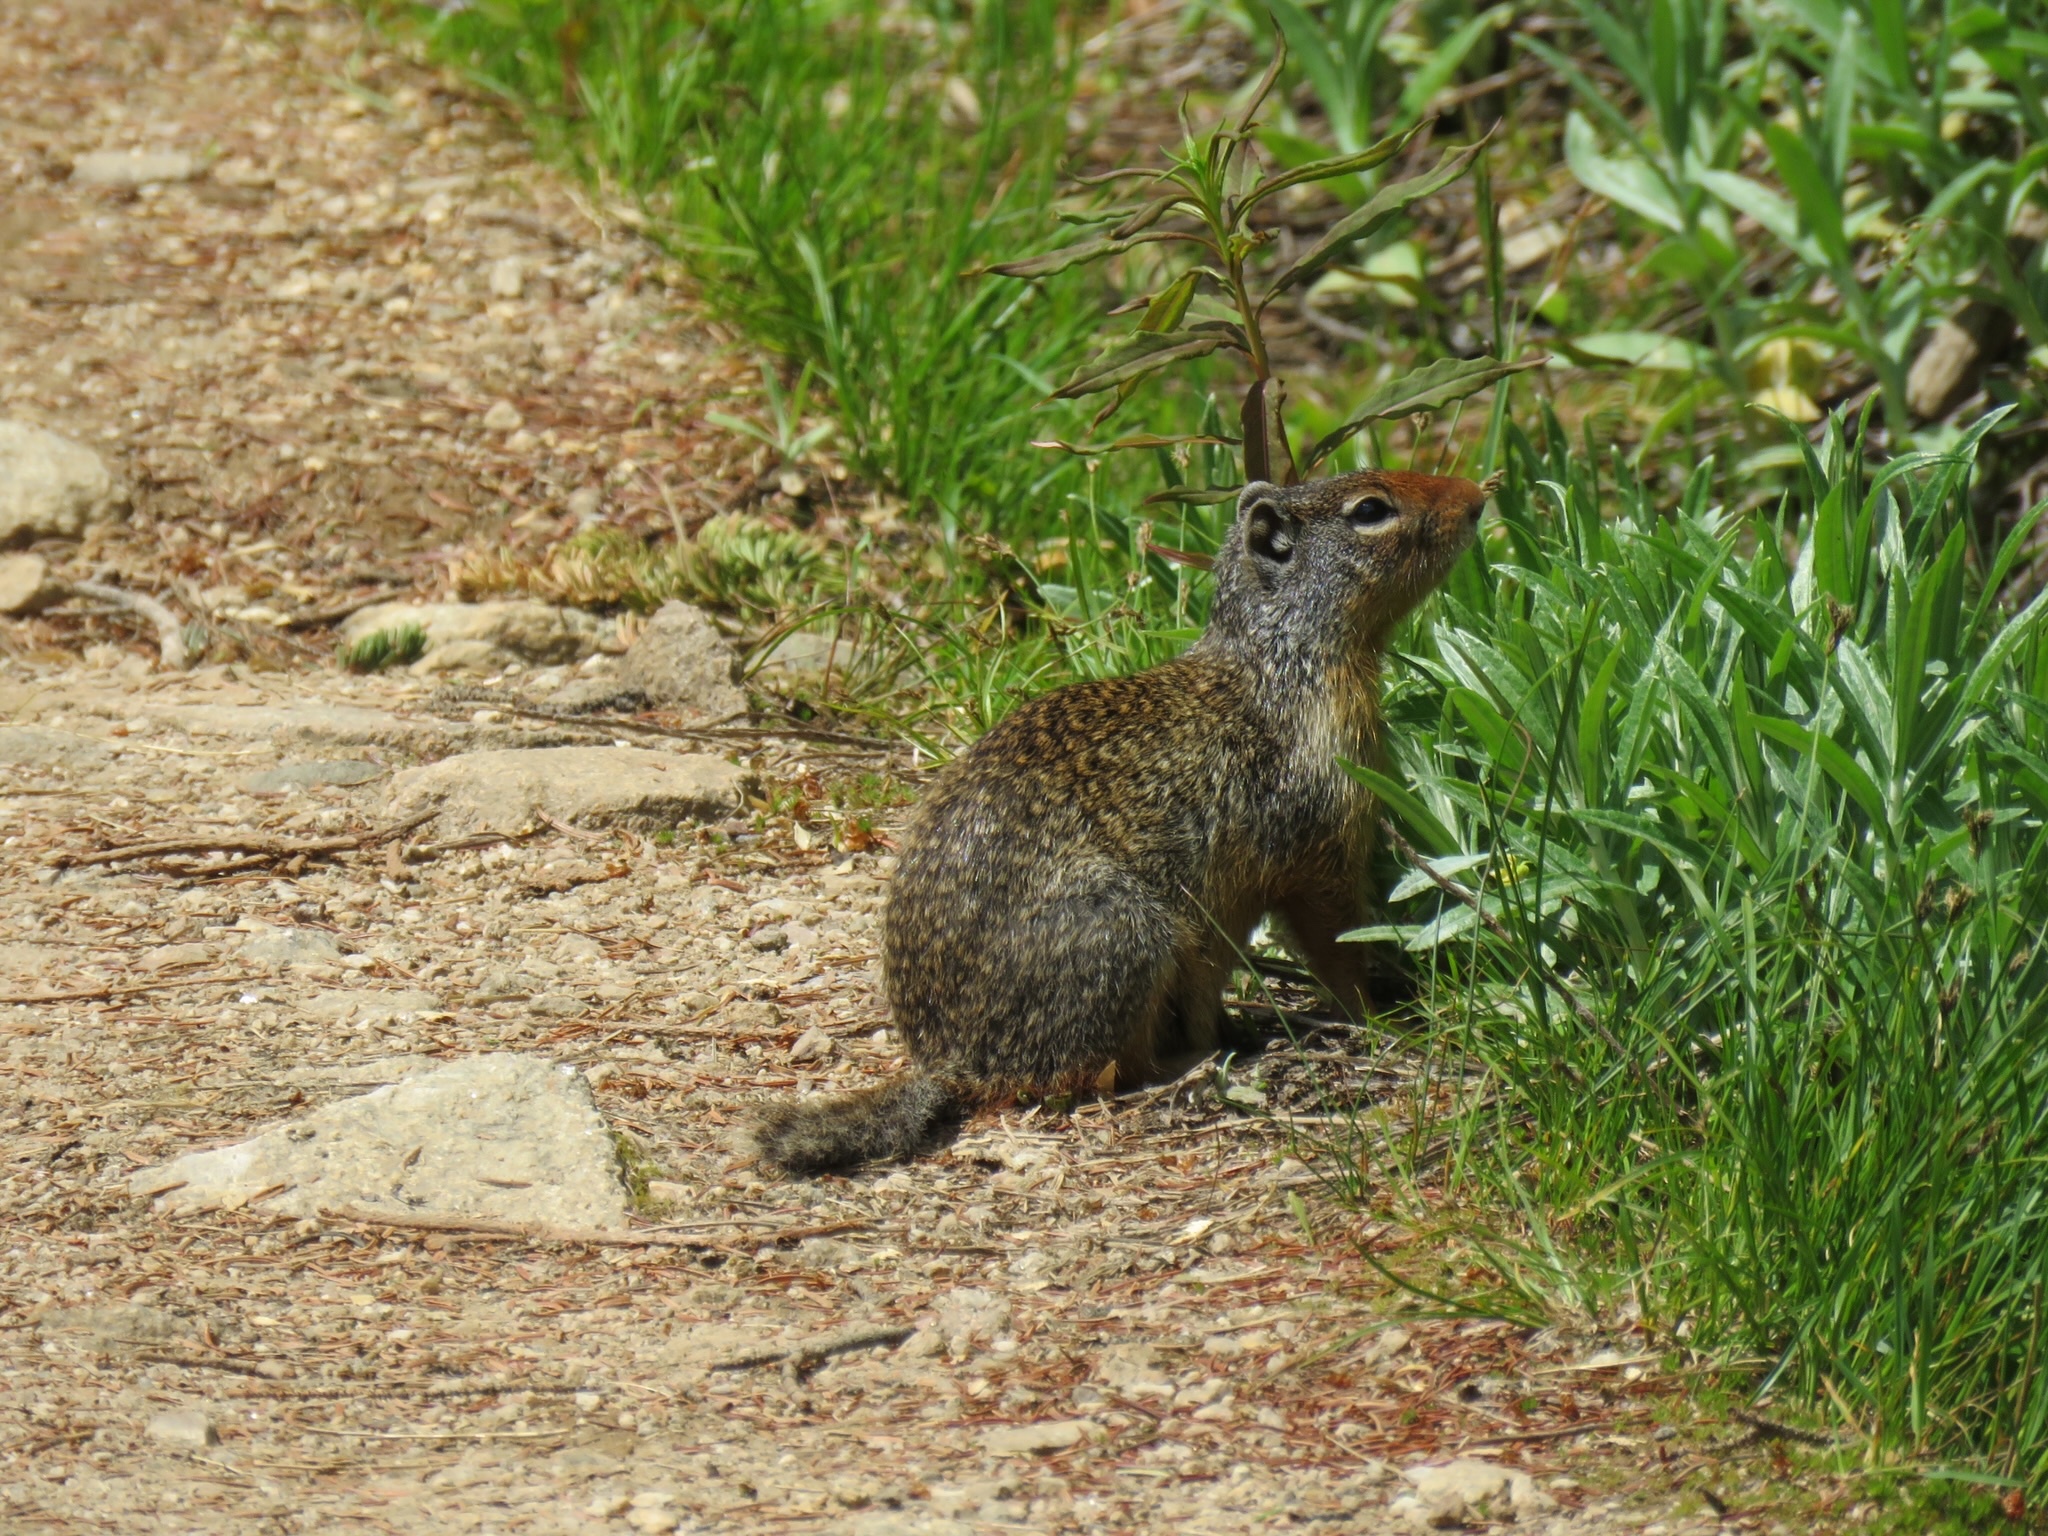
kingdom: Animalia
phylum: Chordata
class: Mammalia
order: Rodentia
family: Sciuridae
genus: Urocitellus
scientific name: Urocitellus columbianus
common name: Columbian ground squirrel
